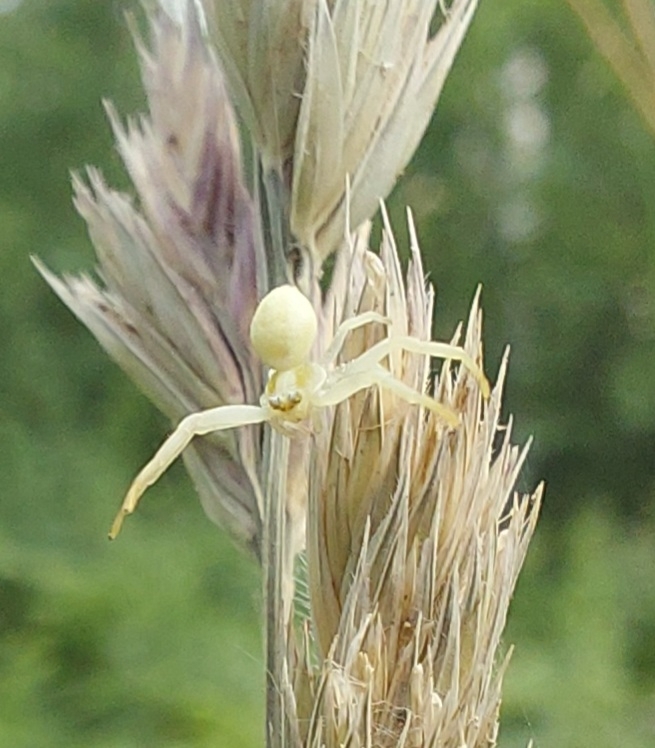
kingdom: Animalia
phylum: Arthropoda
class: Arachnida
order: Araneae
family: Thomisidae
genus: Misumena
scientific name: Misumena vatia
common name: Goldenrod crab spider
